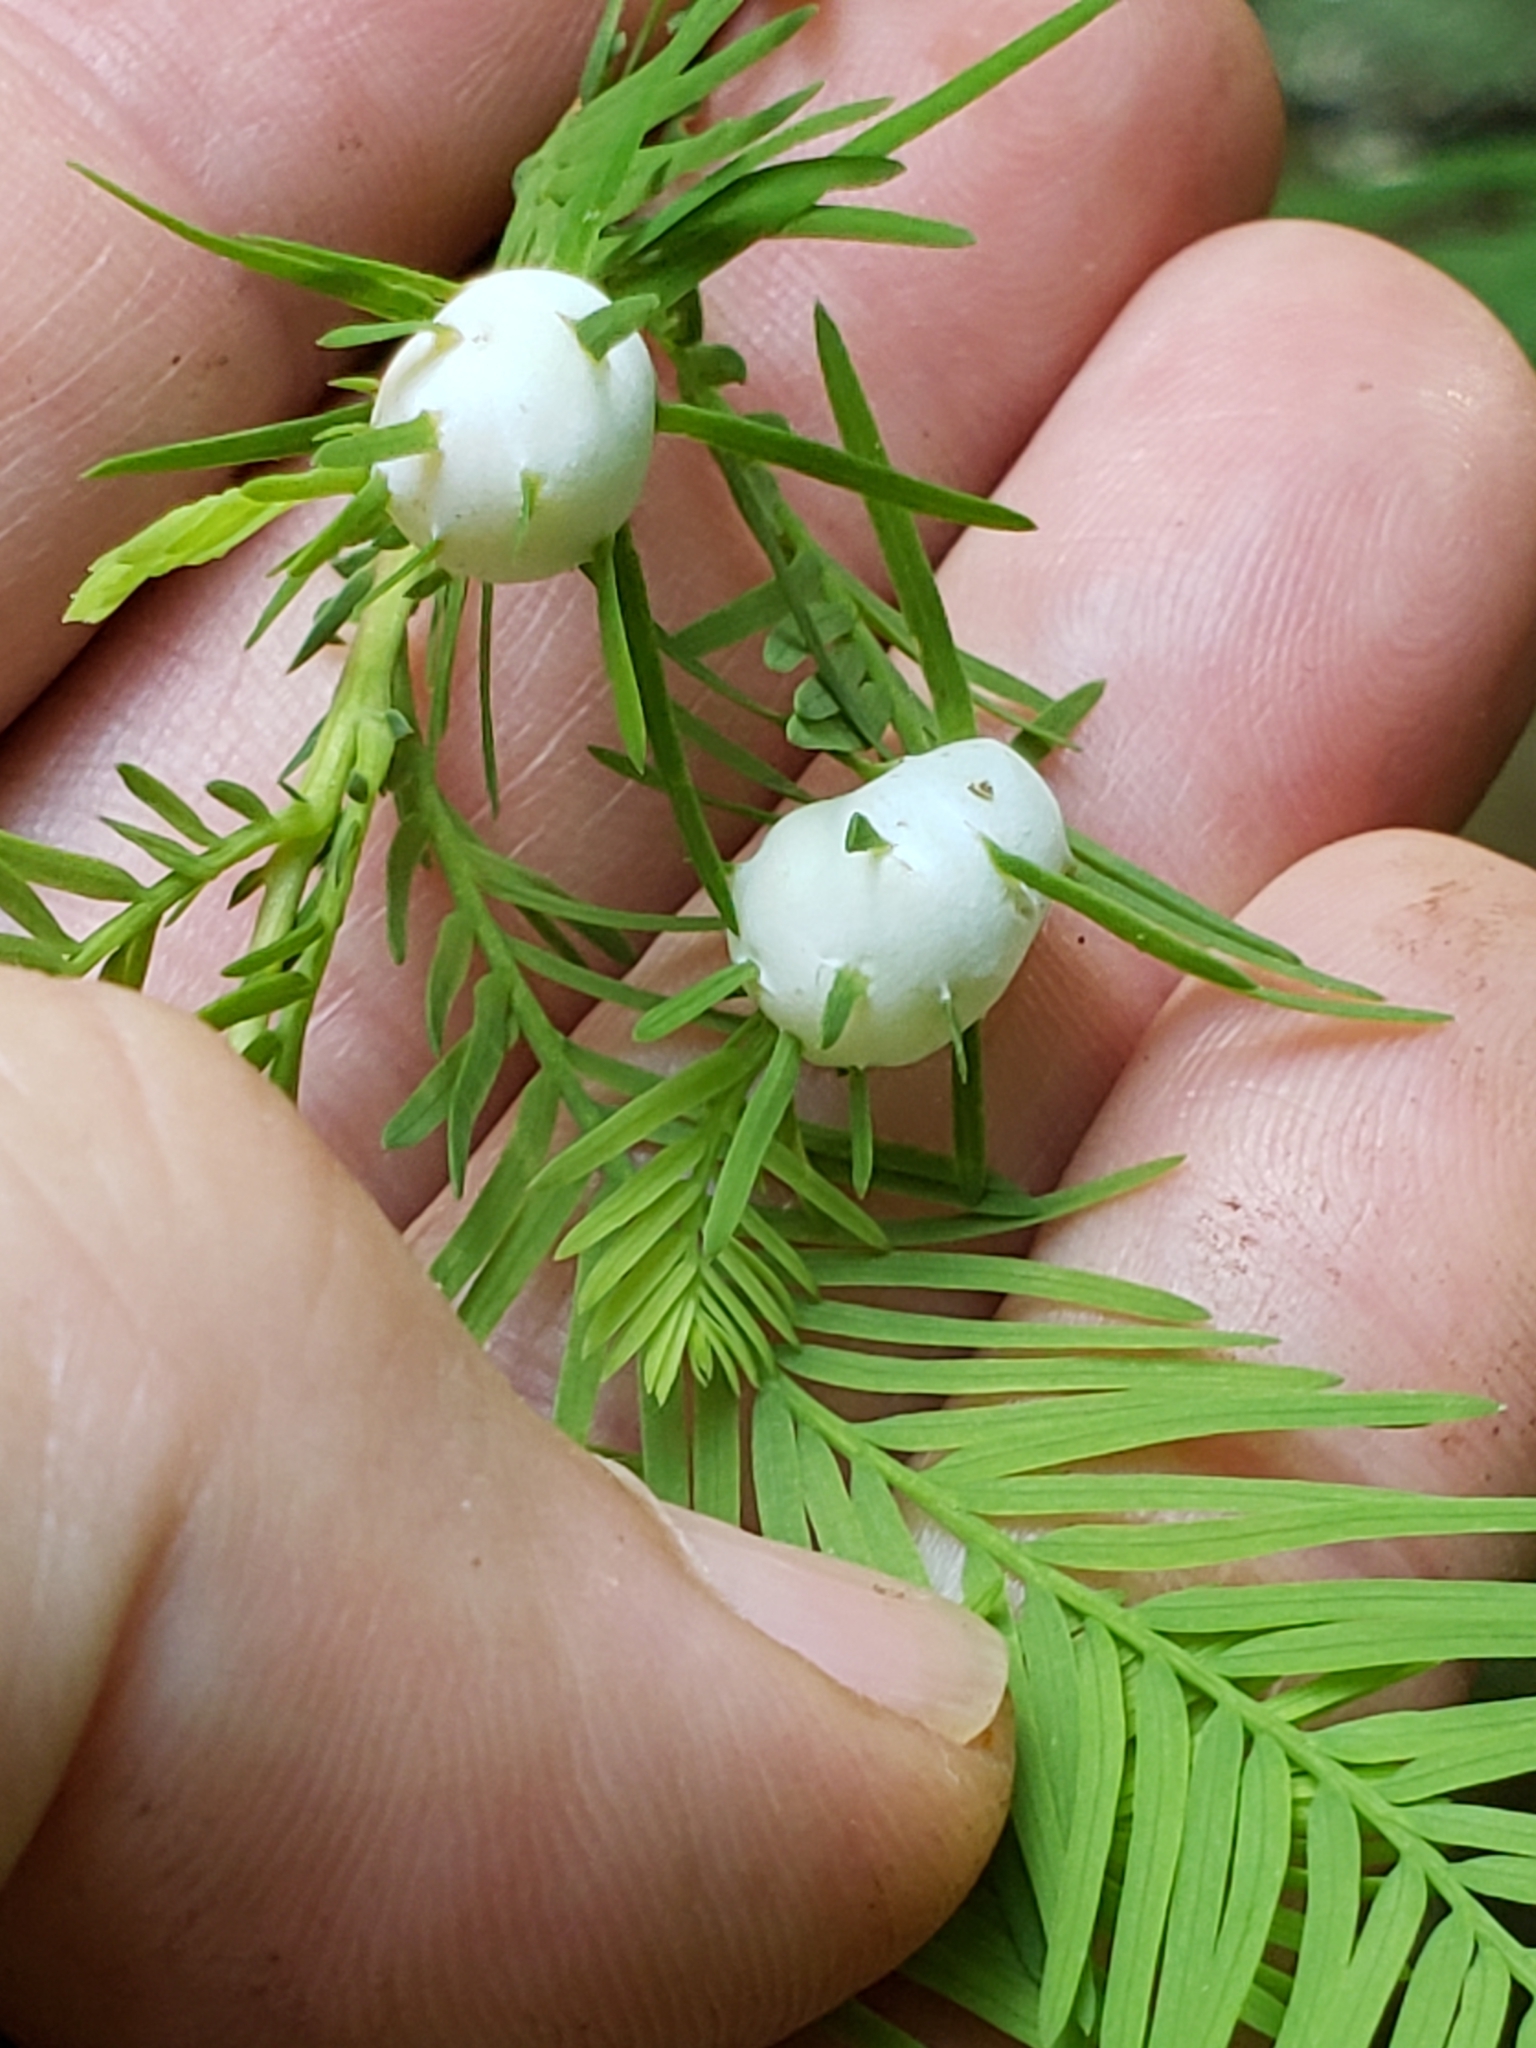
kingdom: Animalia
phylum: Arthropoda
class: Insecta
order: Diptera
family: Cecidomyiidae
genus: Taxodiomyia
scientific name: Taxodiomyia cupressiananassa
